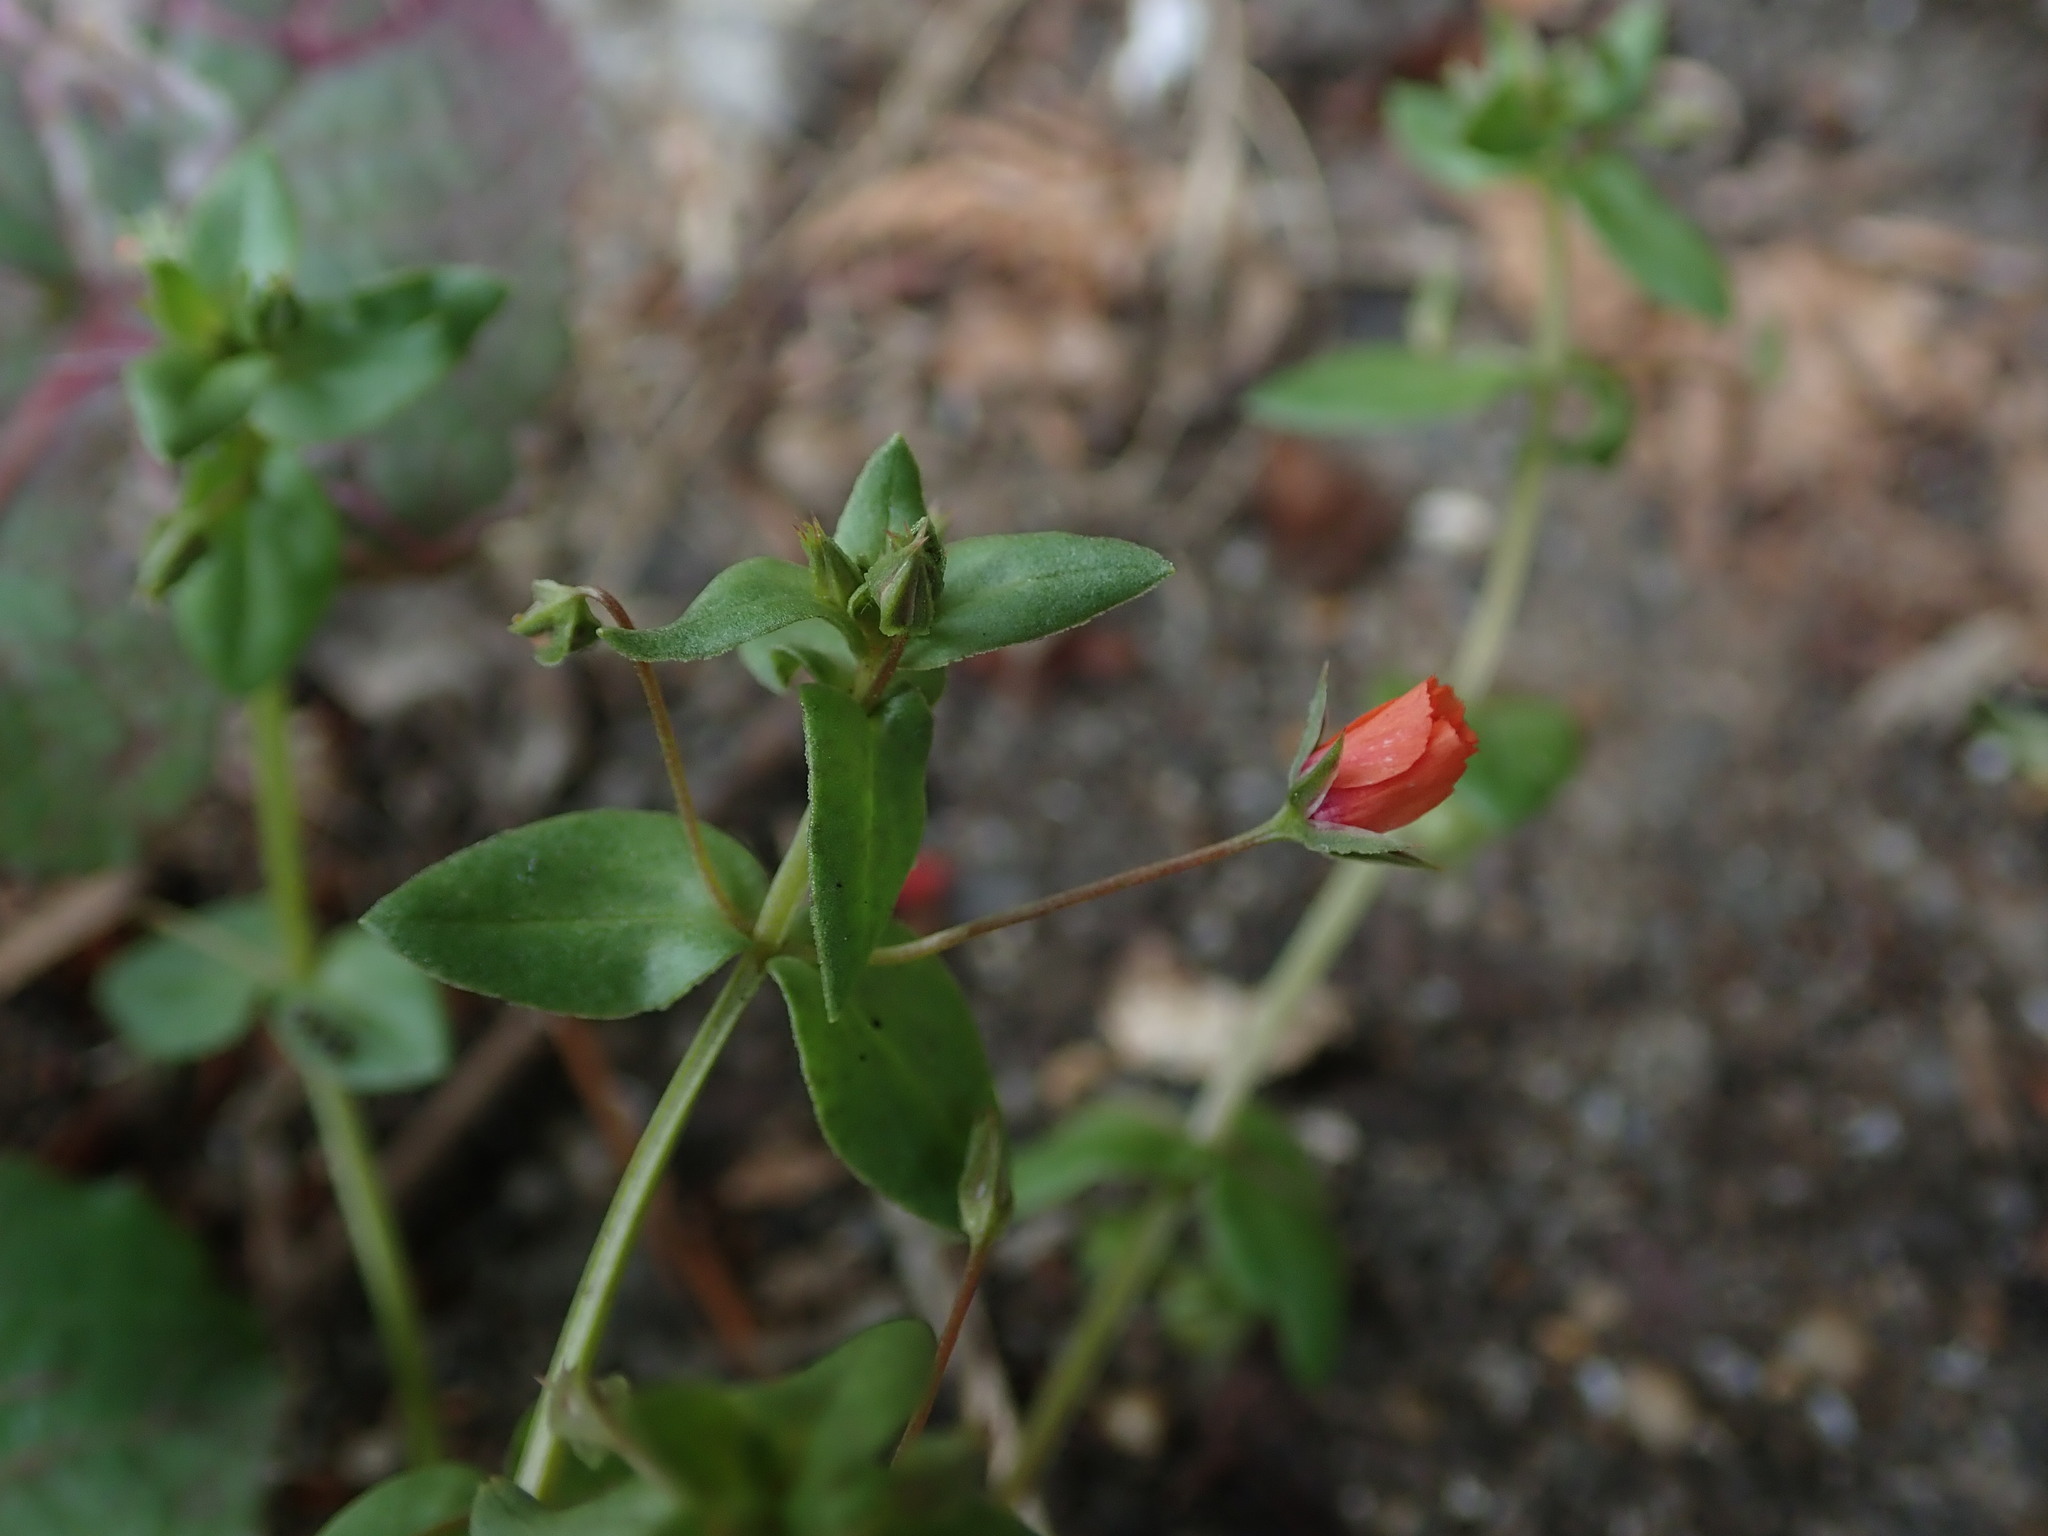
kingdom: Plantae
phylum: Tracheophyta
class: Magnoliopsida
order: Ericales
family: Primulaceae
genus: Lysimachia
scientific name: Lysimachia arvensis
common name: Scarlet pimpernel
